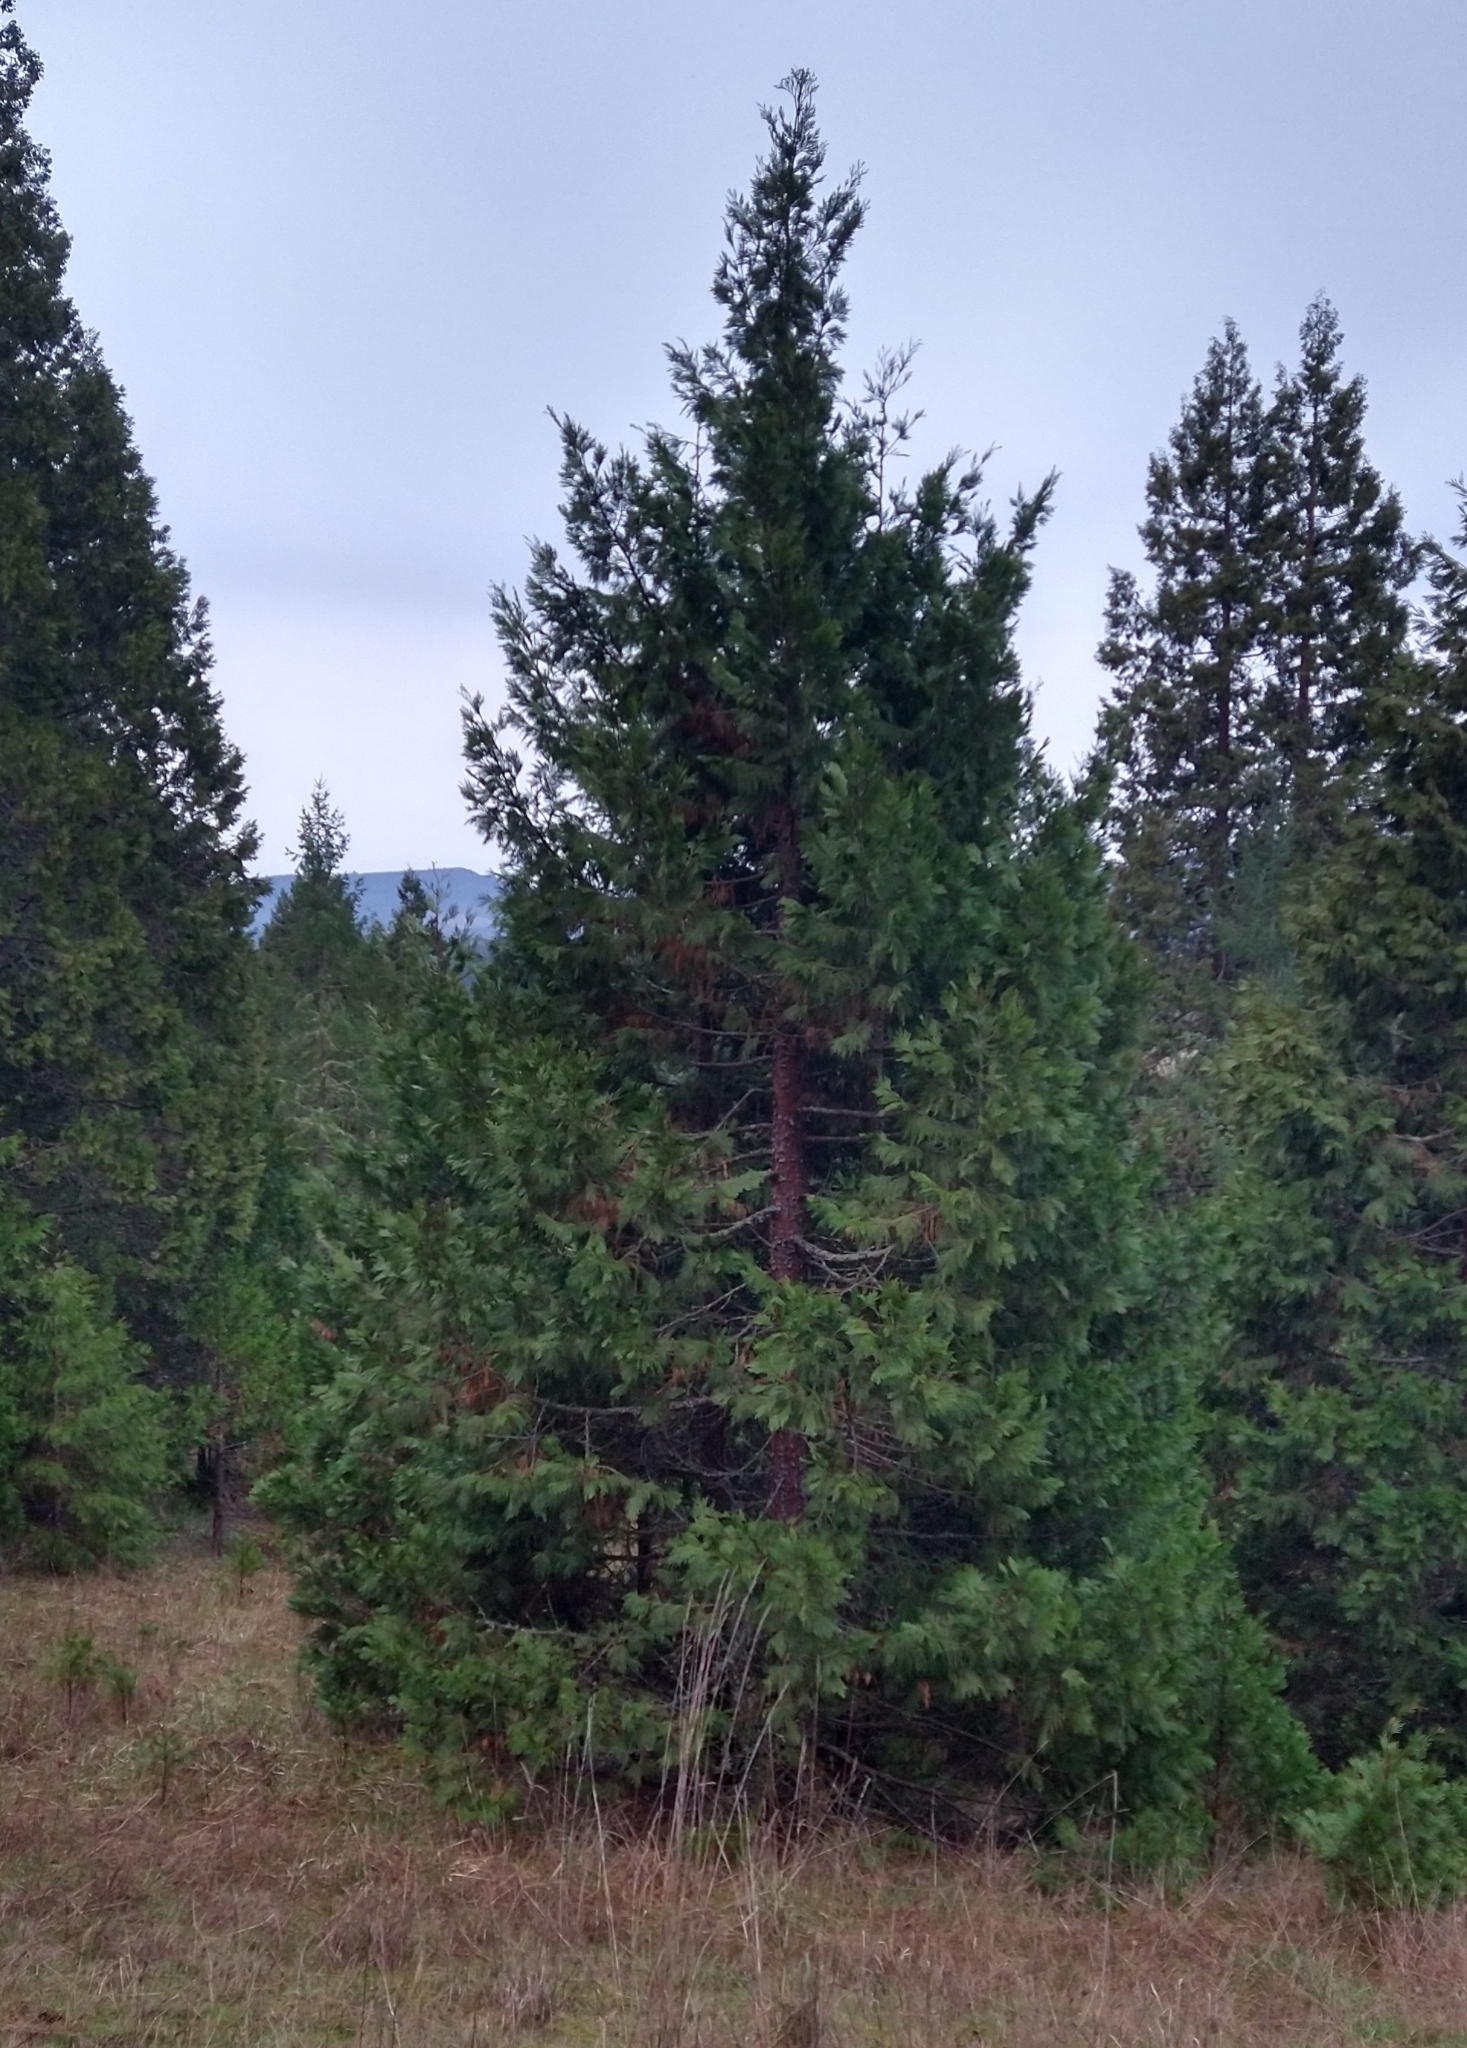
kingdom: Plantae
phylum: Tracheophyta
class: Pinopsida
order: Pinales
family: Cupressaceae
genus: Calocedrus
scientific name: Calocedrus decurrens
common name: Californian incense-cedar
